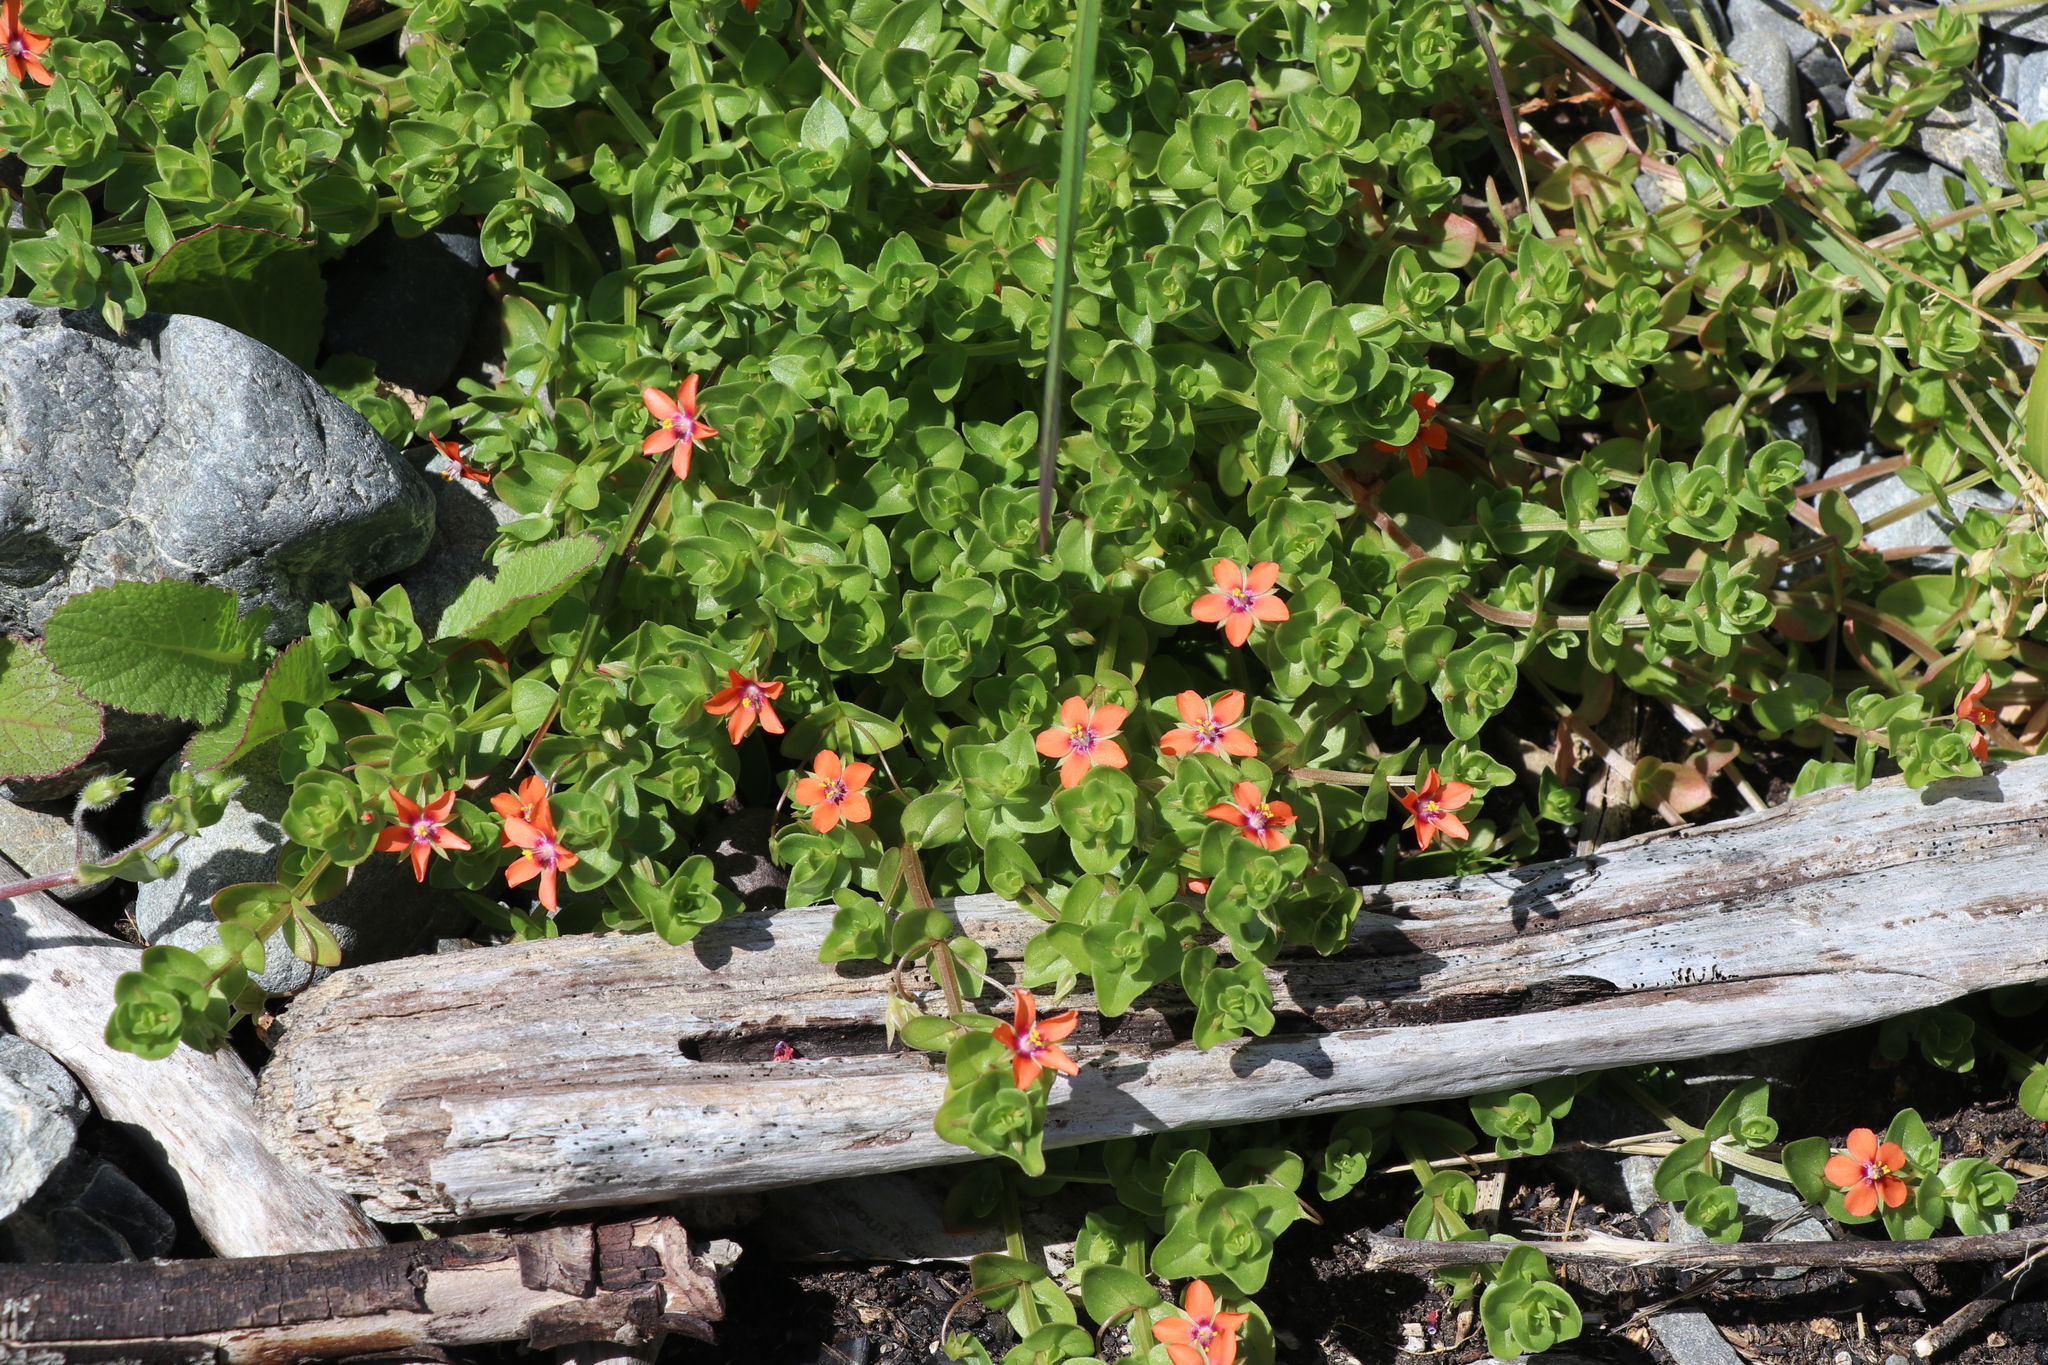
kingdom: Plantae
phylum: Tracheophyta
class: Magnoliopsida
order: Ericales
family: Primulaceae
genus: Lysimachia
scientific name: Lysimachia arvensis
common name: Scarlet pimpernel
